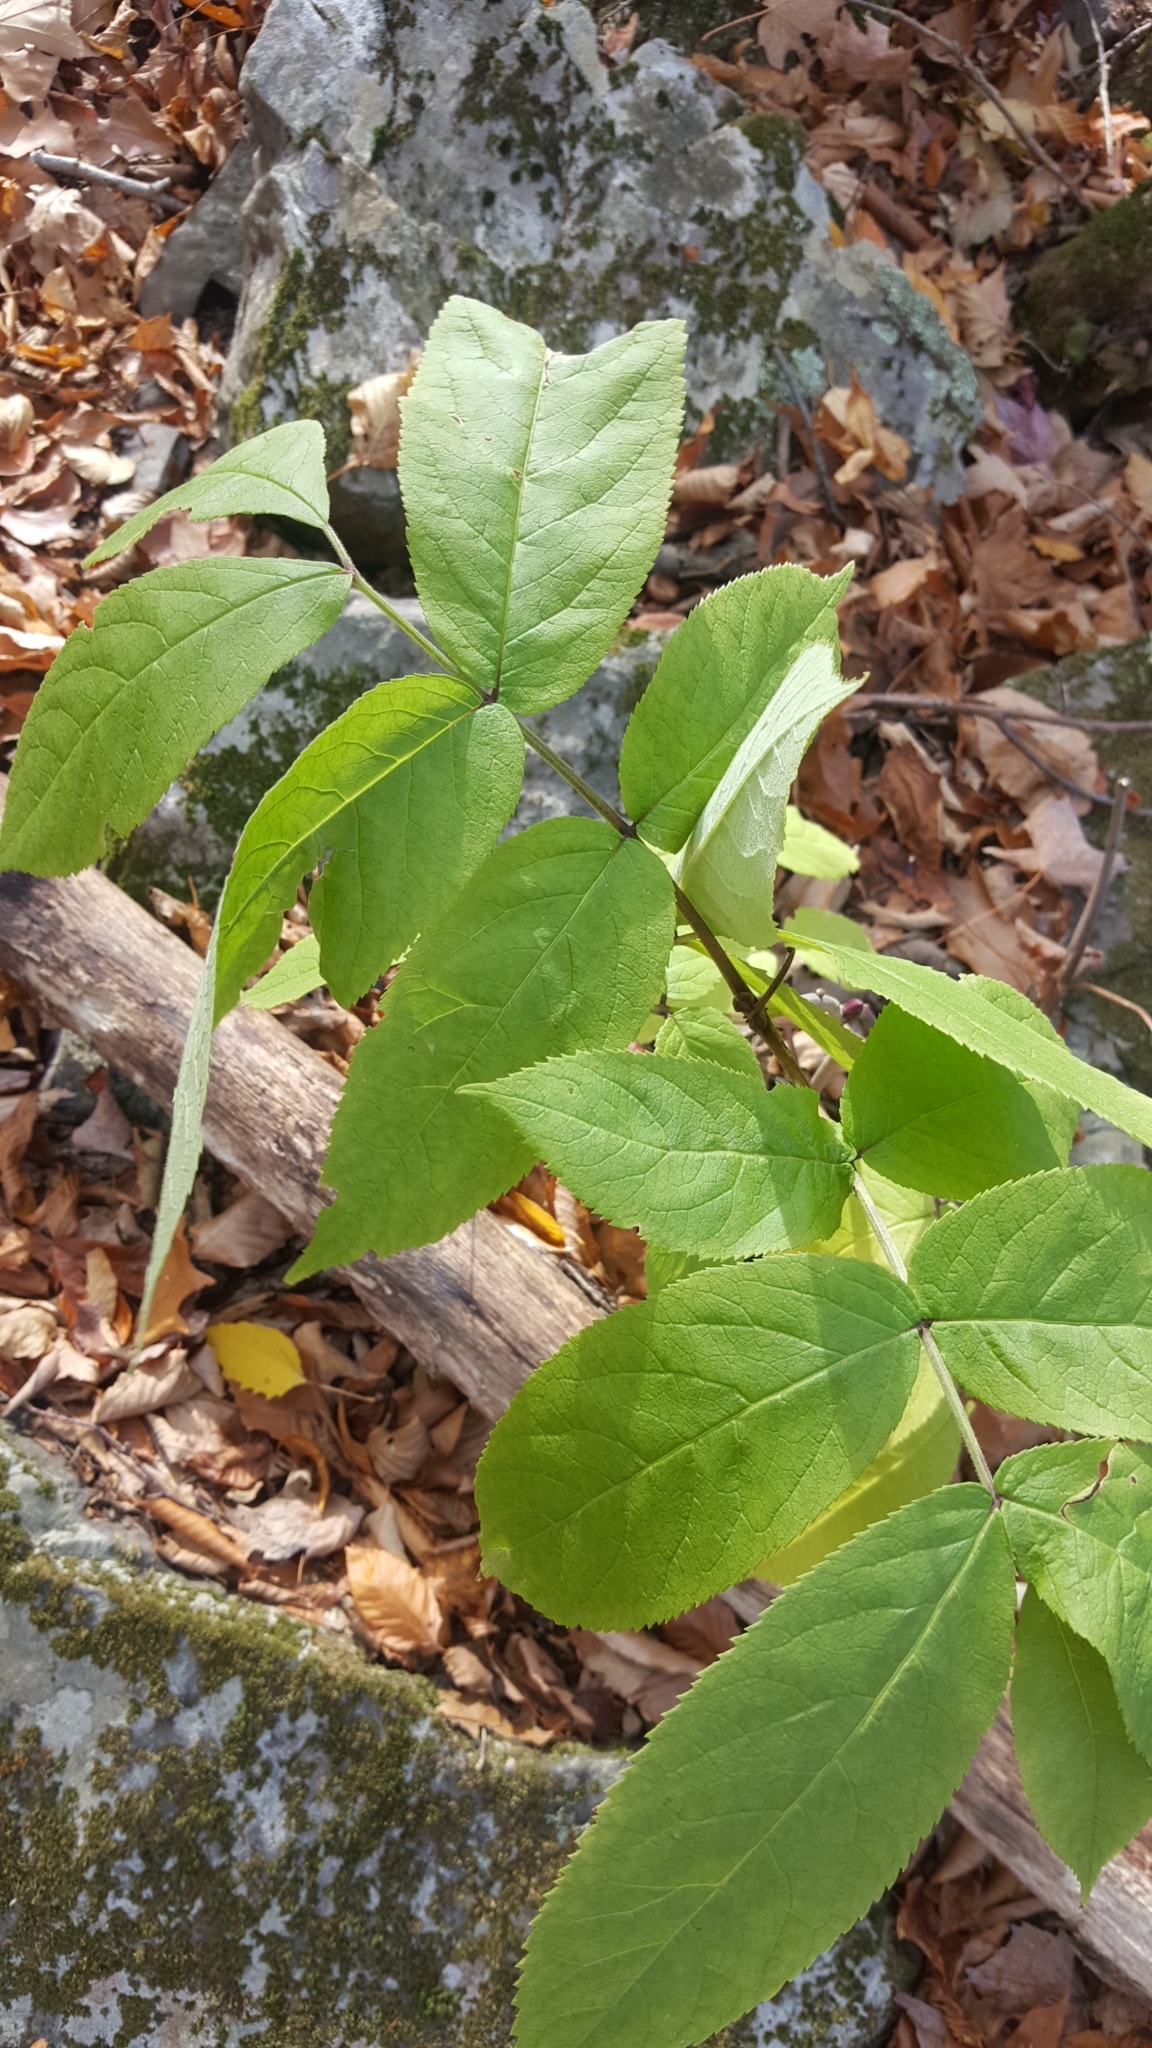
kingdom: Plantae
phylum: Tracheophyta
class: Magnoliopsida
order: Dipsacales
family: Viburnaceae
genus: Sambucus
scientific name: Sambucus racemosa
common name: Red-berried elder
